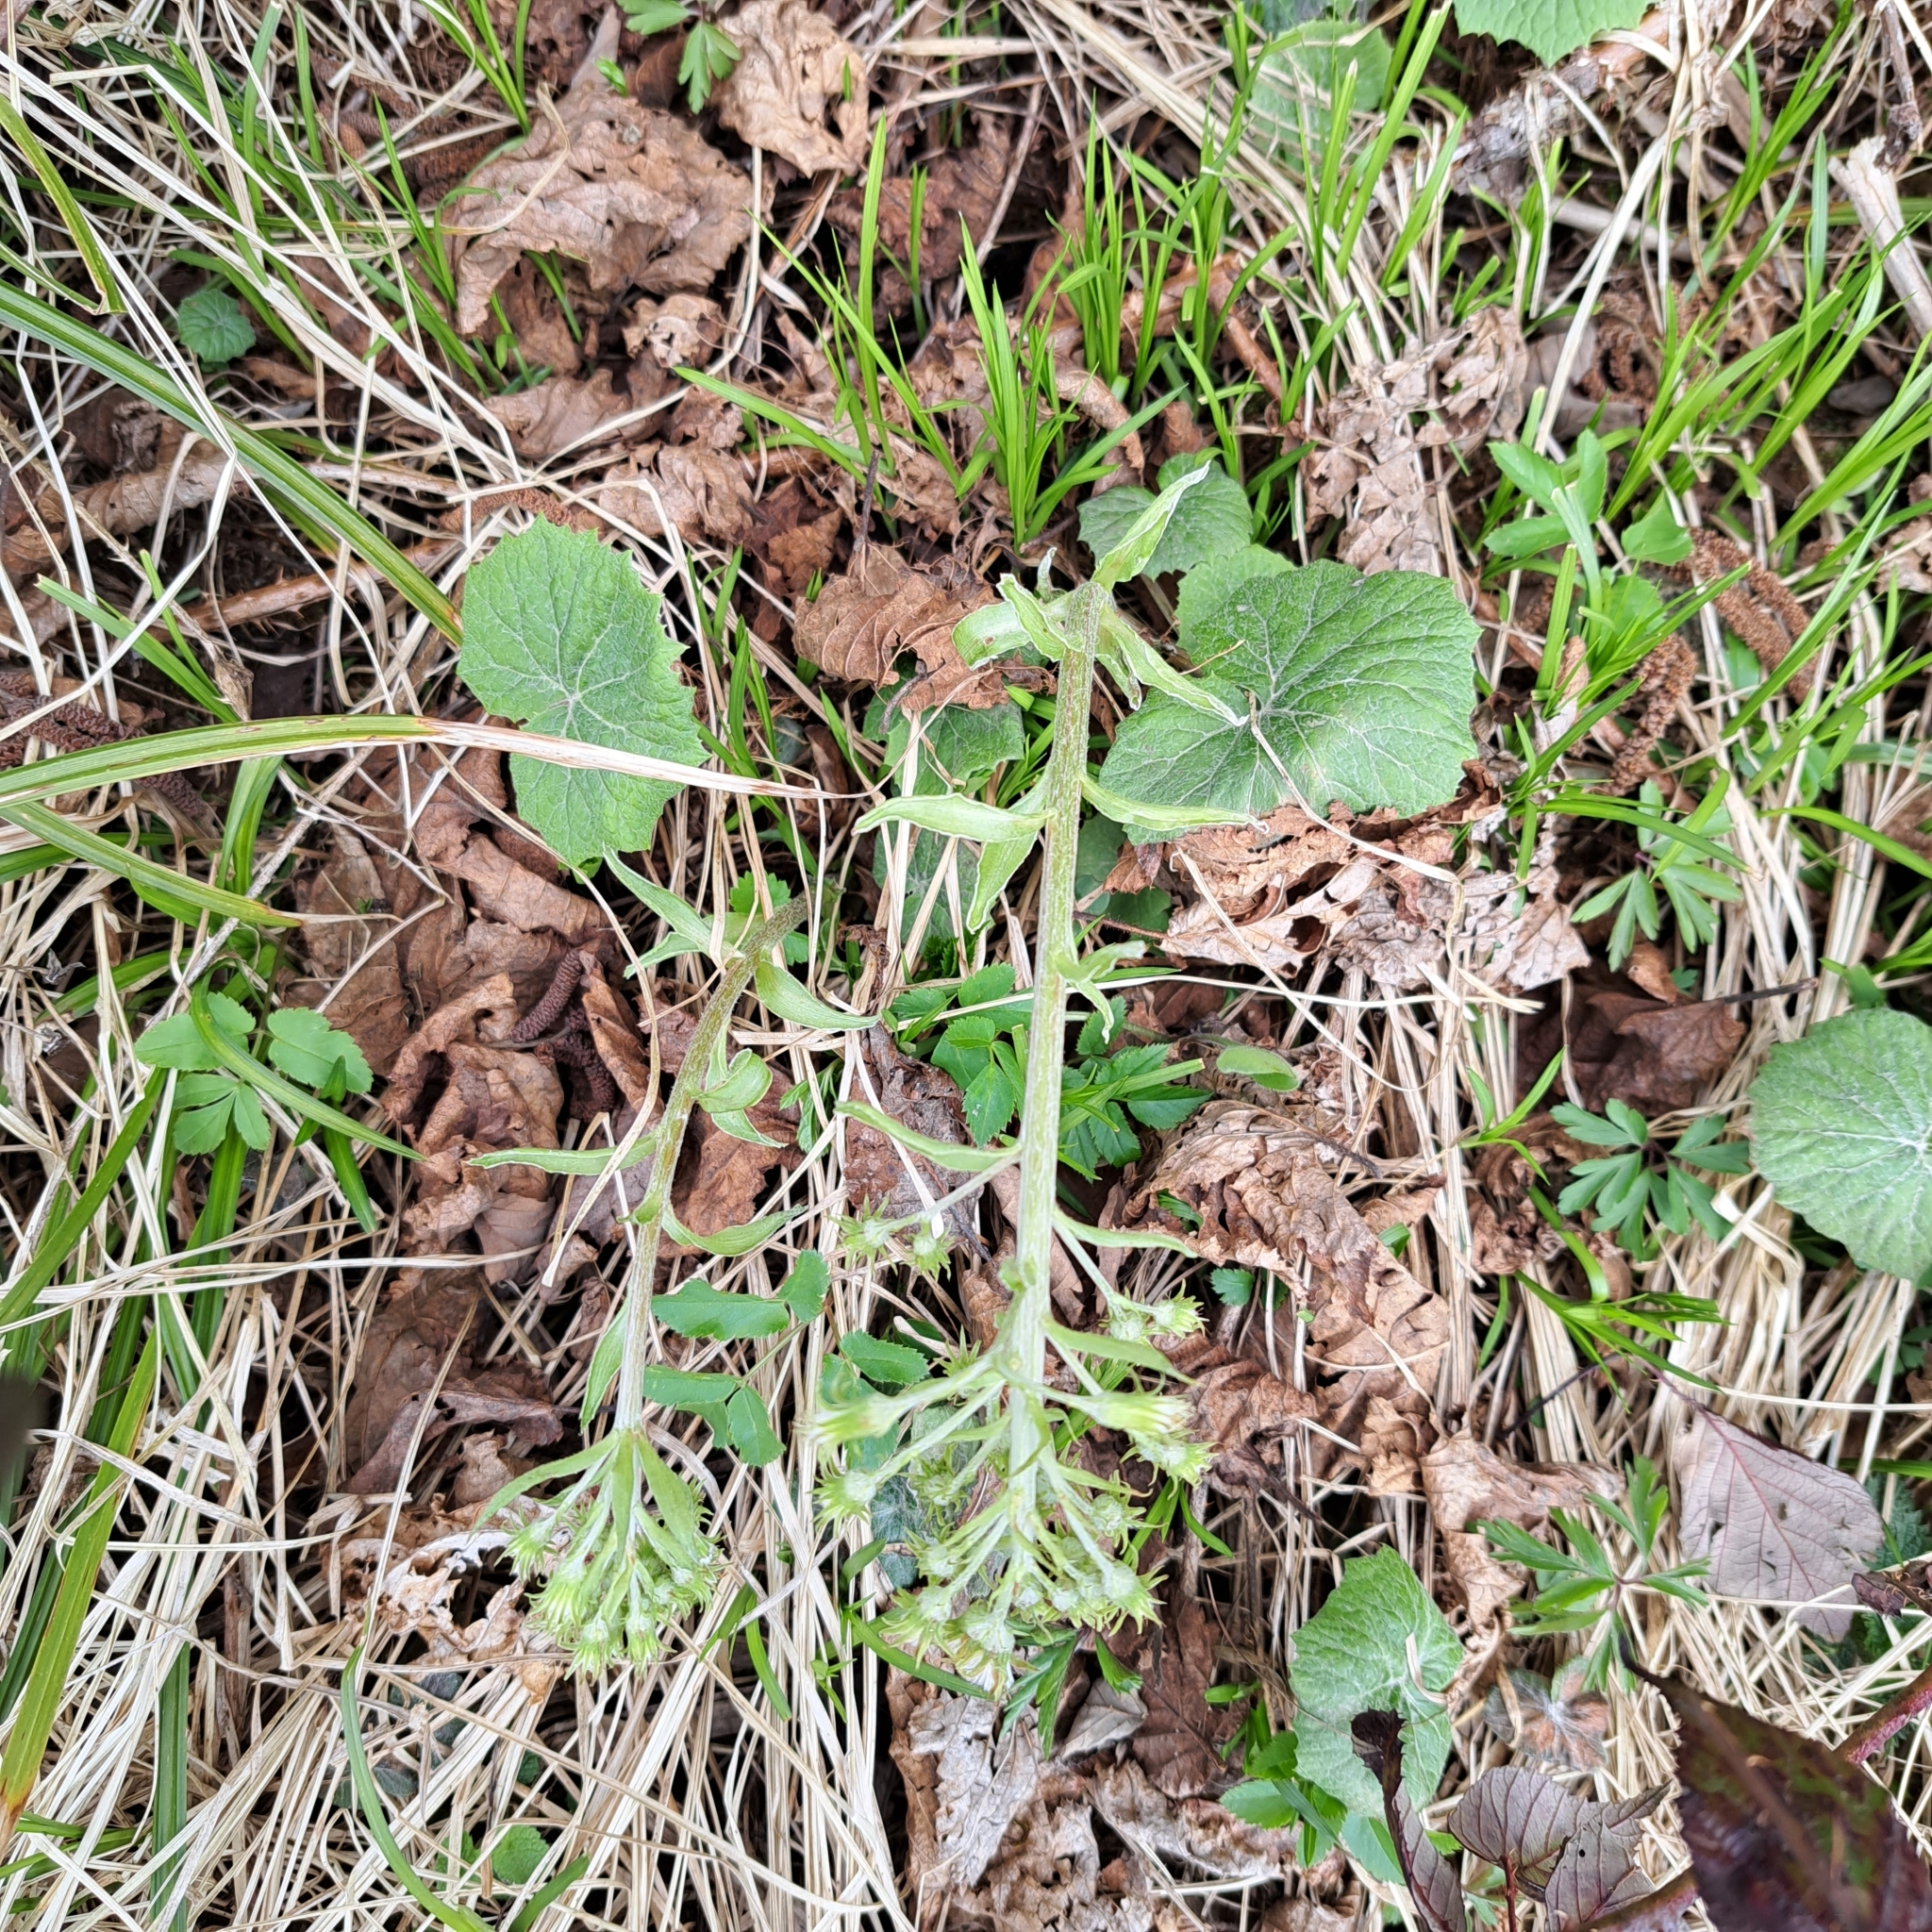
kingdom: Plantae
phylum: Tracheophyta
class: Magnoliopsida
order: Asterales
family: Asteraceae
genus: Petasites
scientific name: Petasites albus
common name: White butterbur
